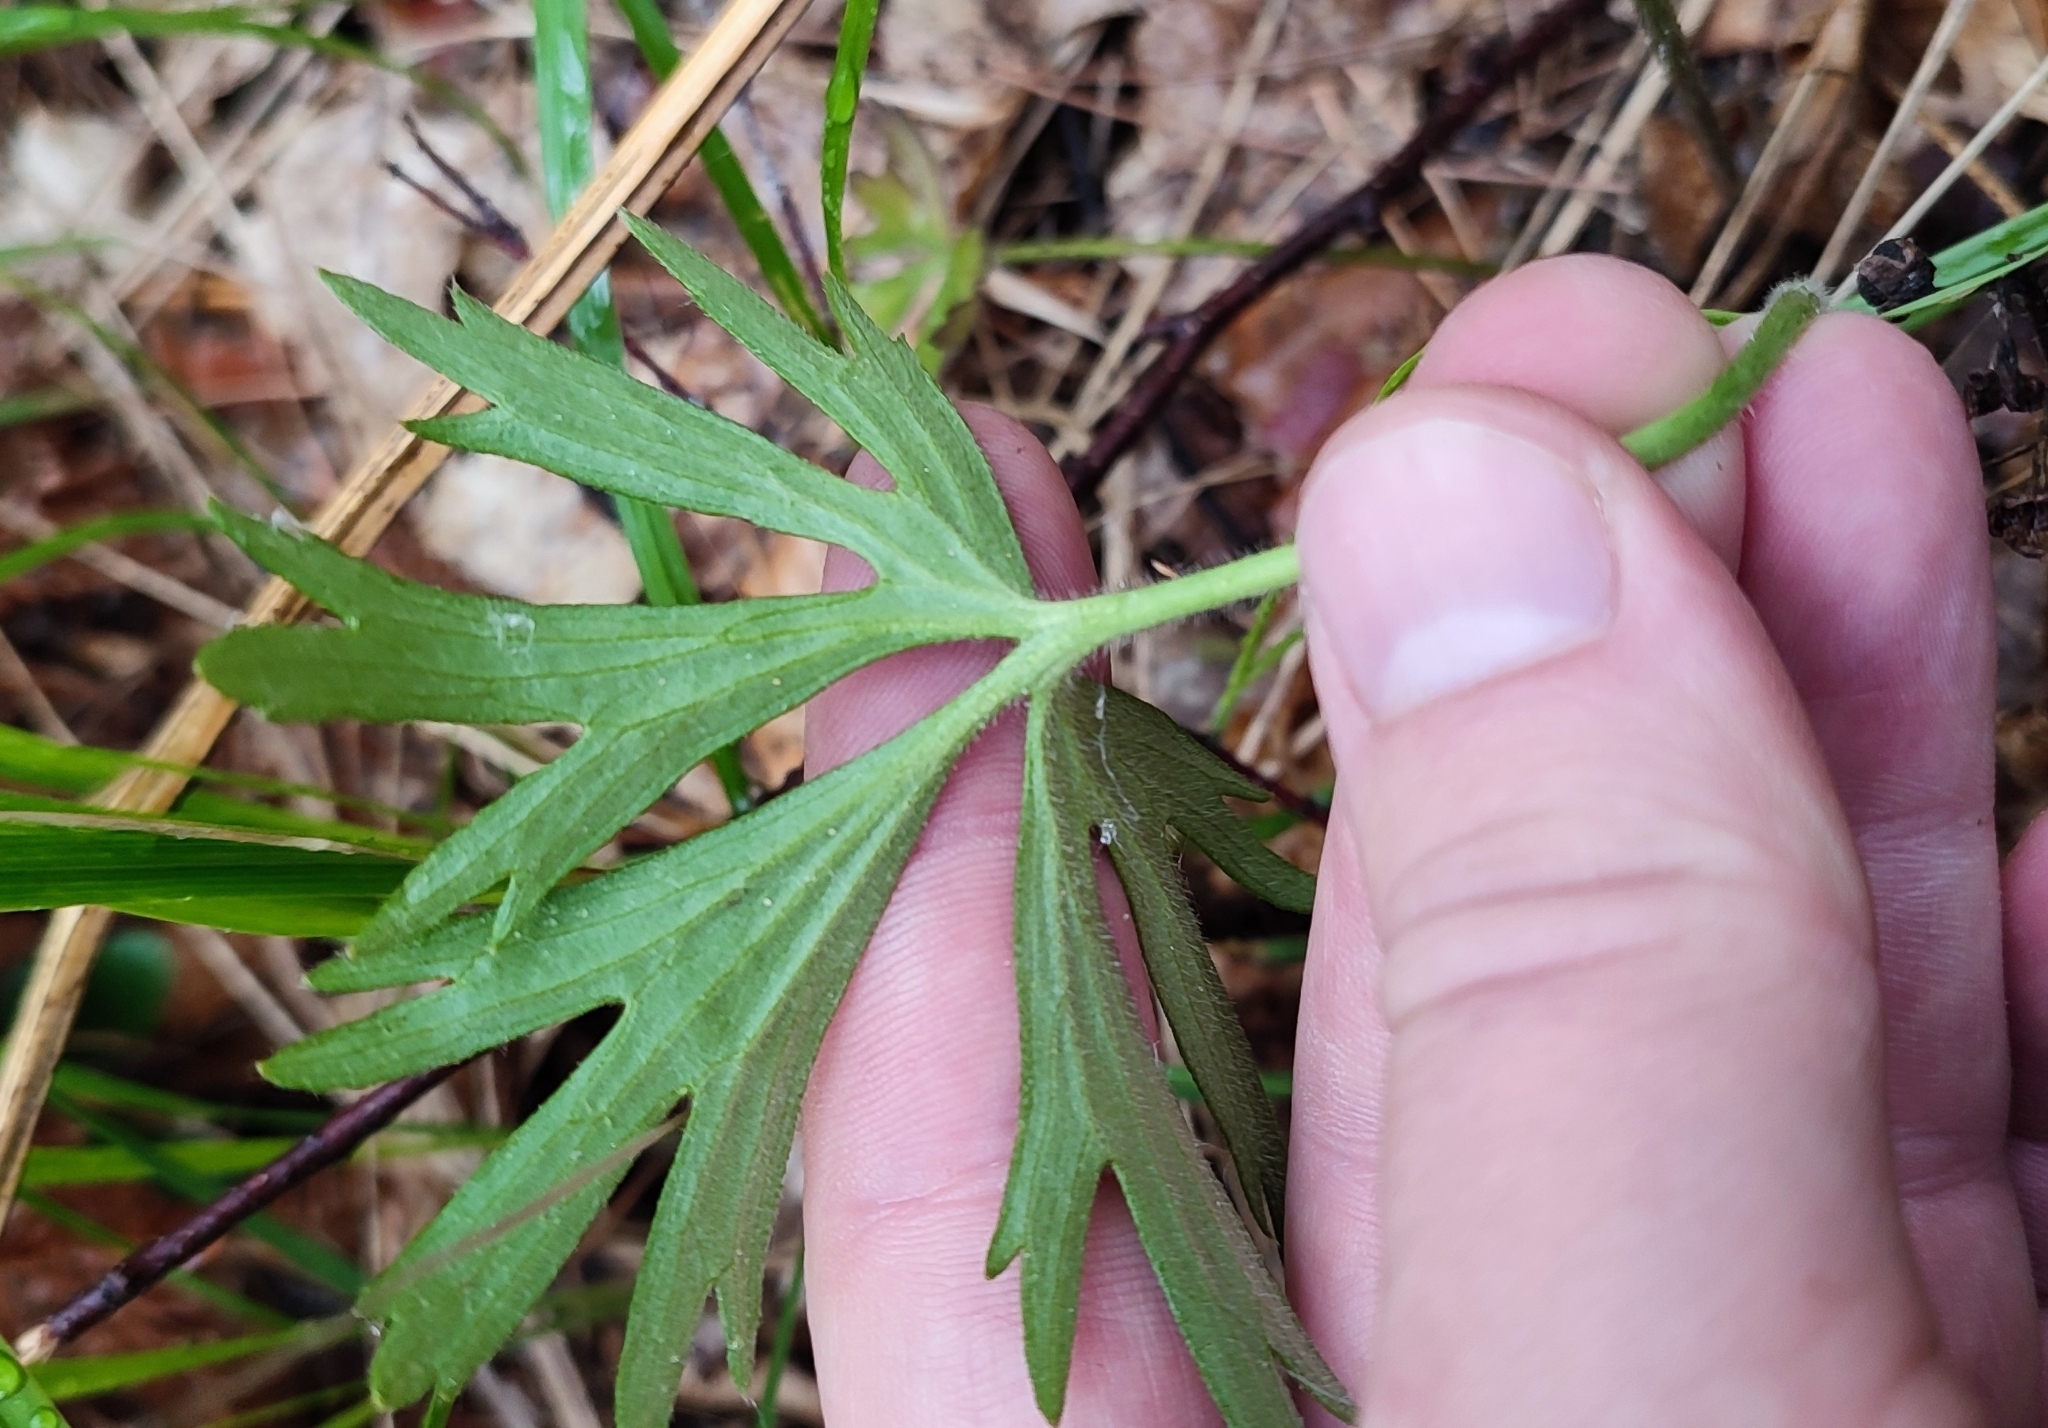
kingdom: Plantae
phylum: Tracheophyta
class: Magnoliopsida
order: Ranunculales
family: Ranunculaceae
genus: Ranunculus
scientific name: Ranunculus polyanthemos
